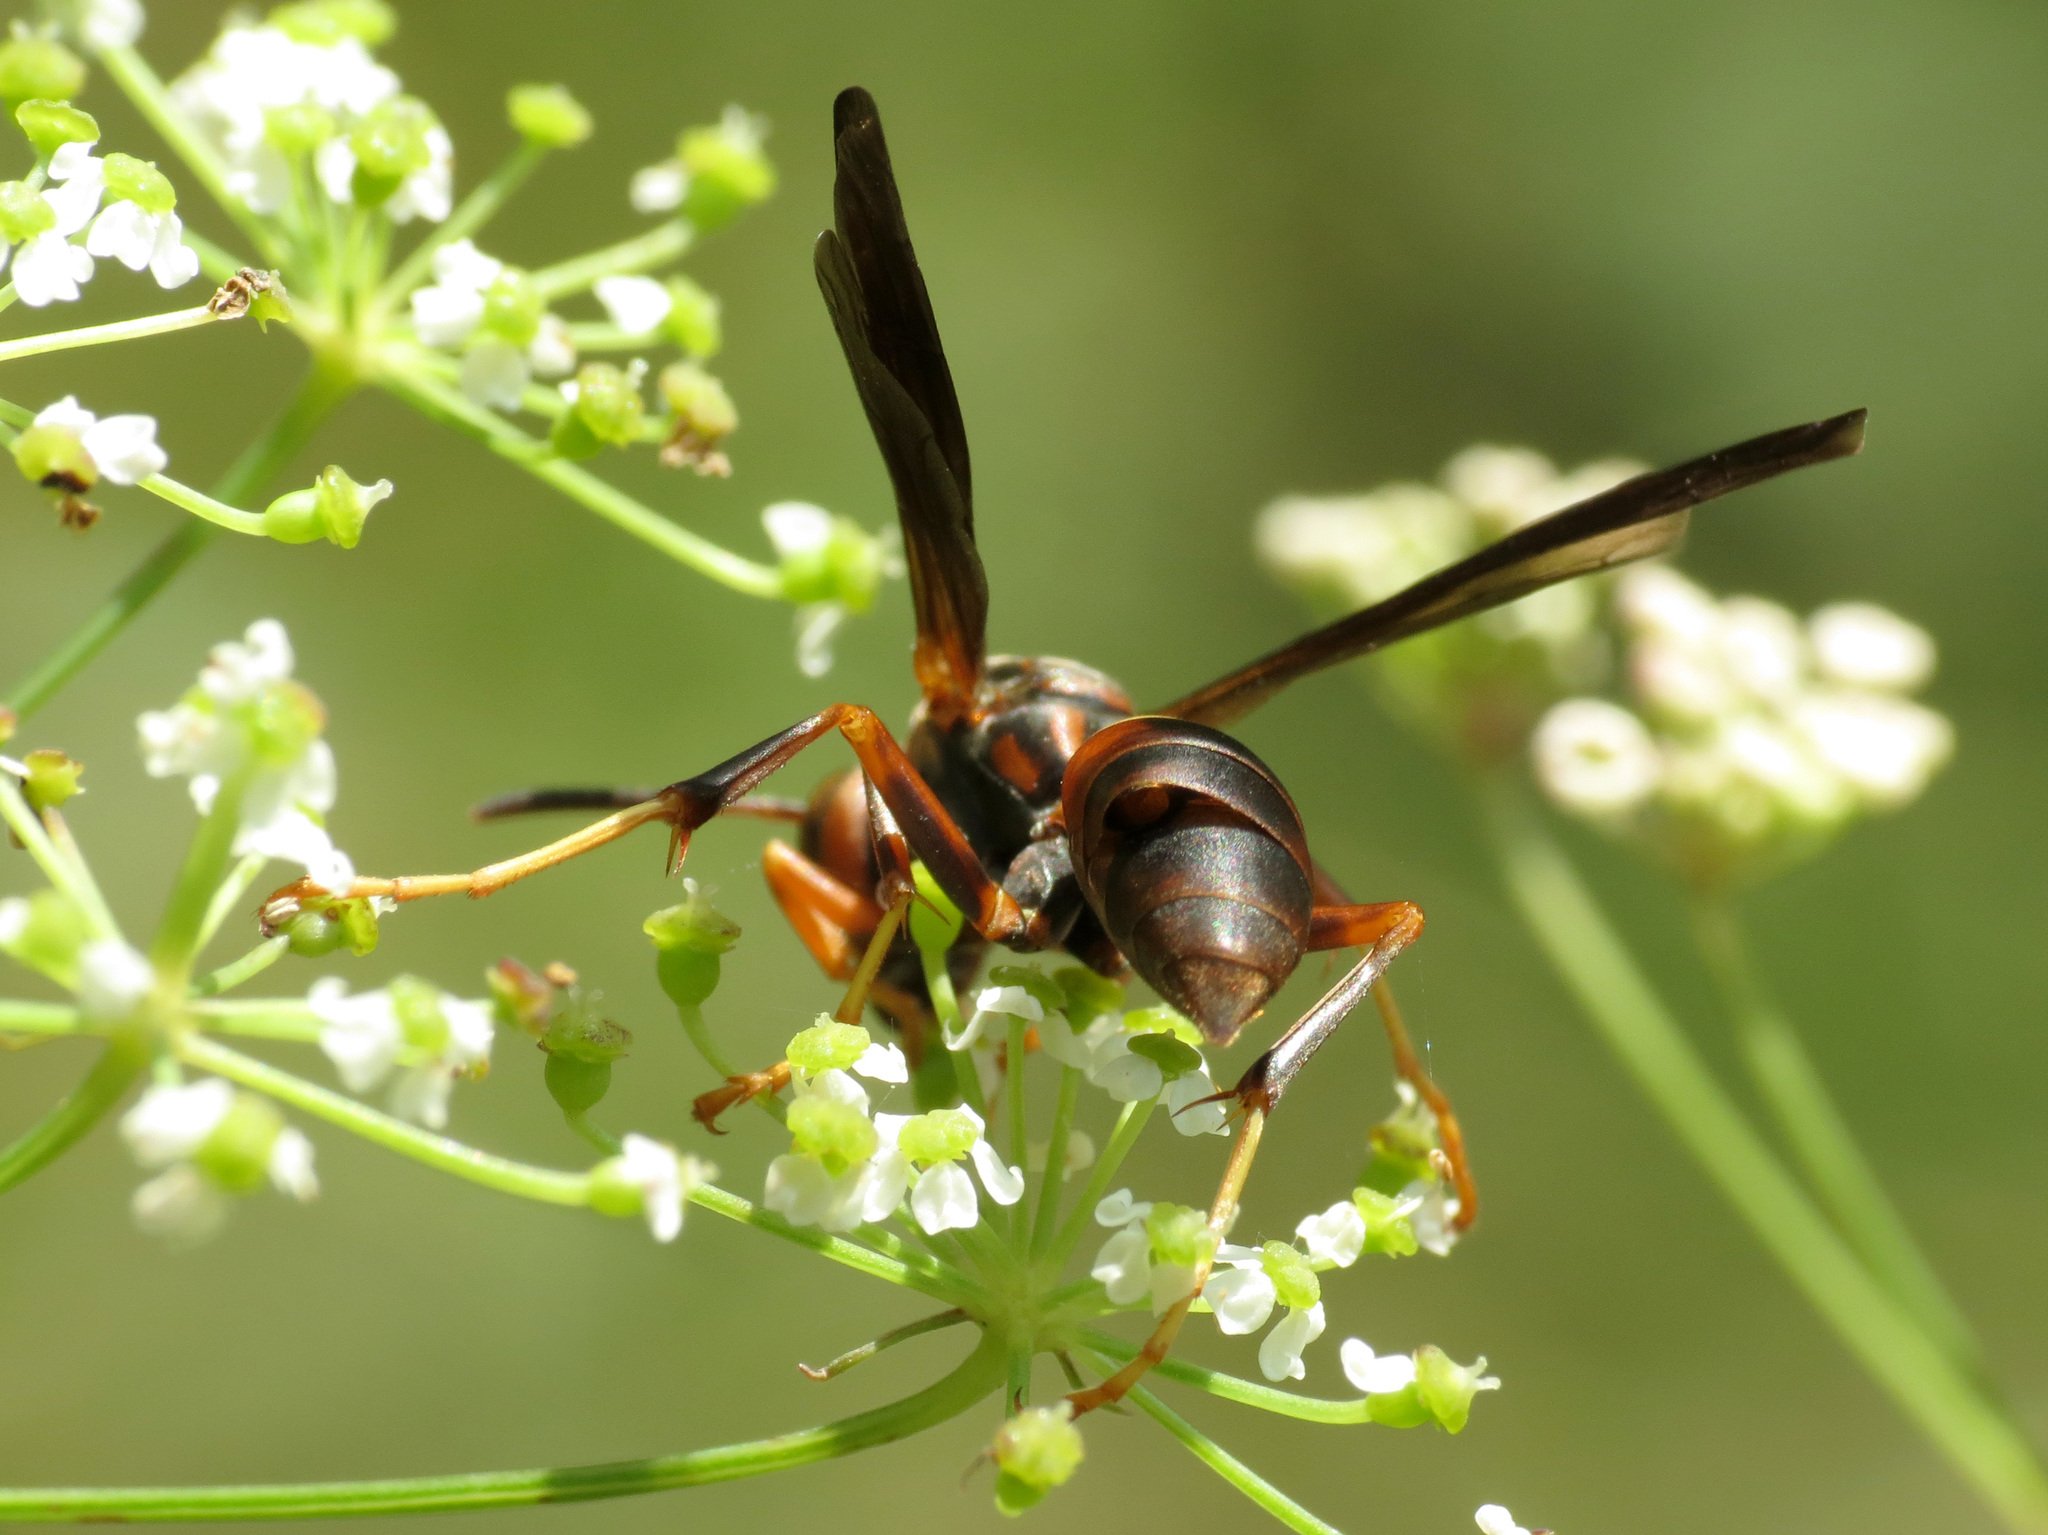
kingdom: Animalia
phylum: Arthropoda
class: Insecta
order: Strepsiptera
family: Xenidae
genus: Xenos
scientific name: Xenos pecki
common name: Twisted wing parasite
